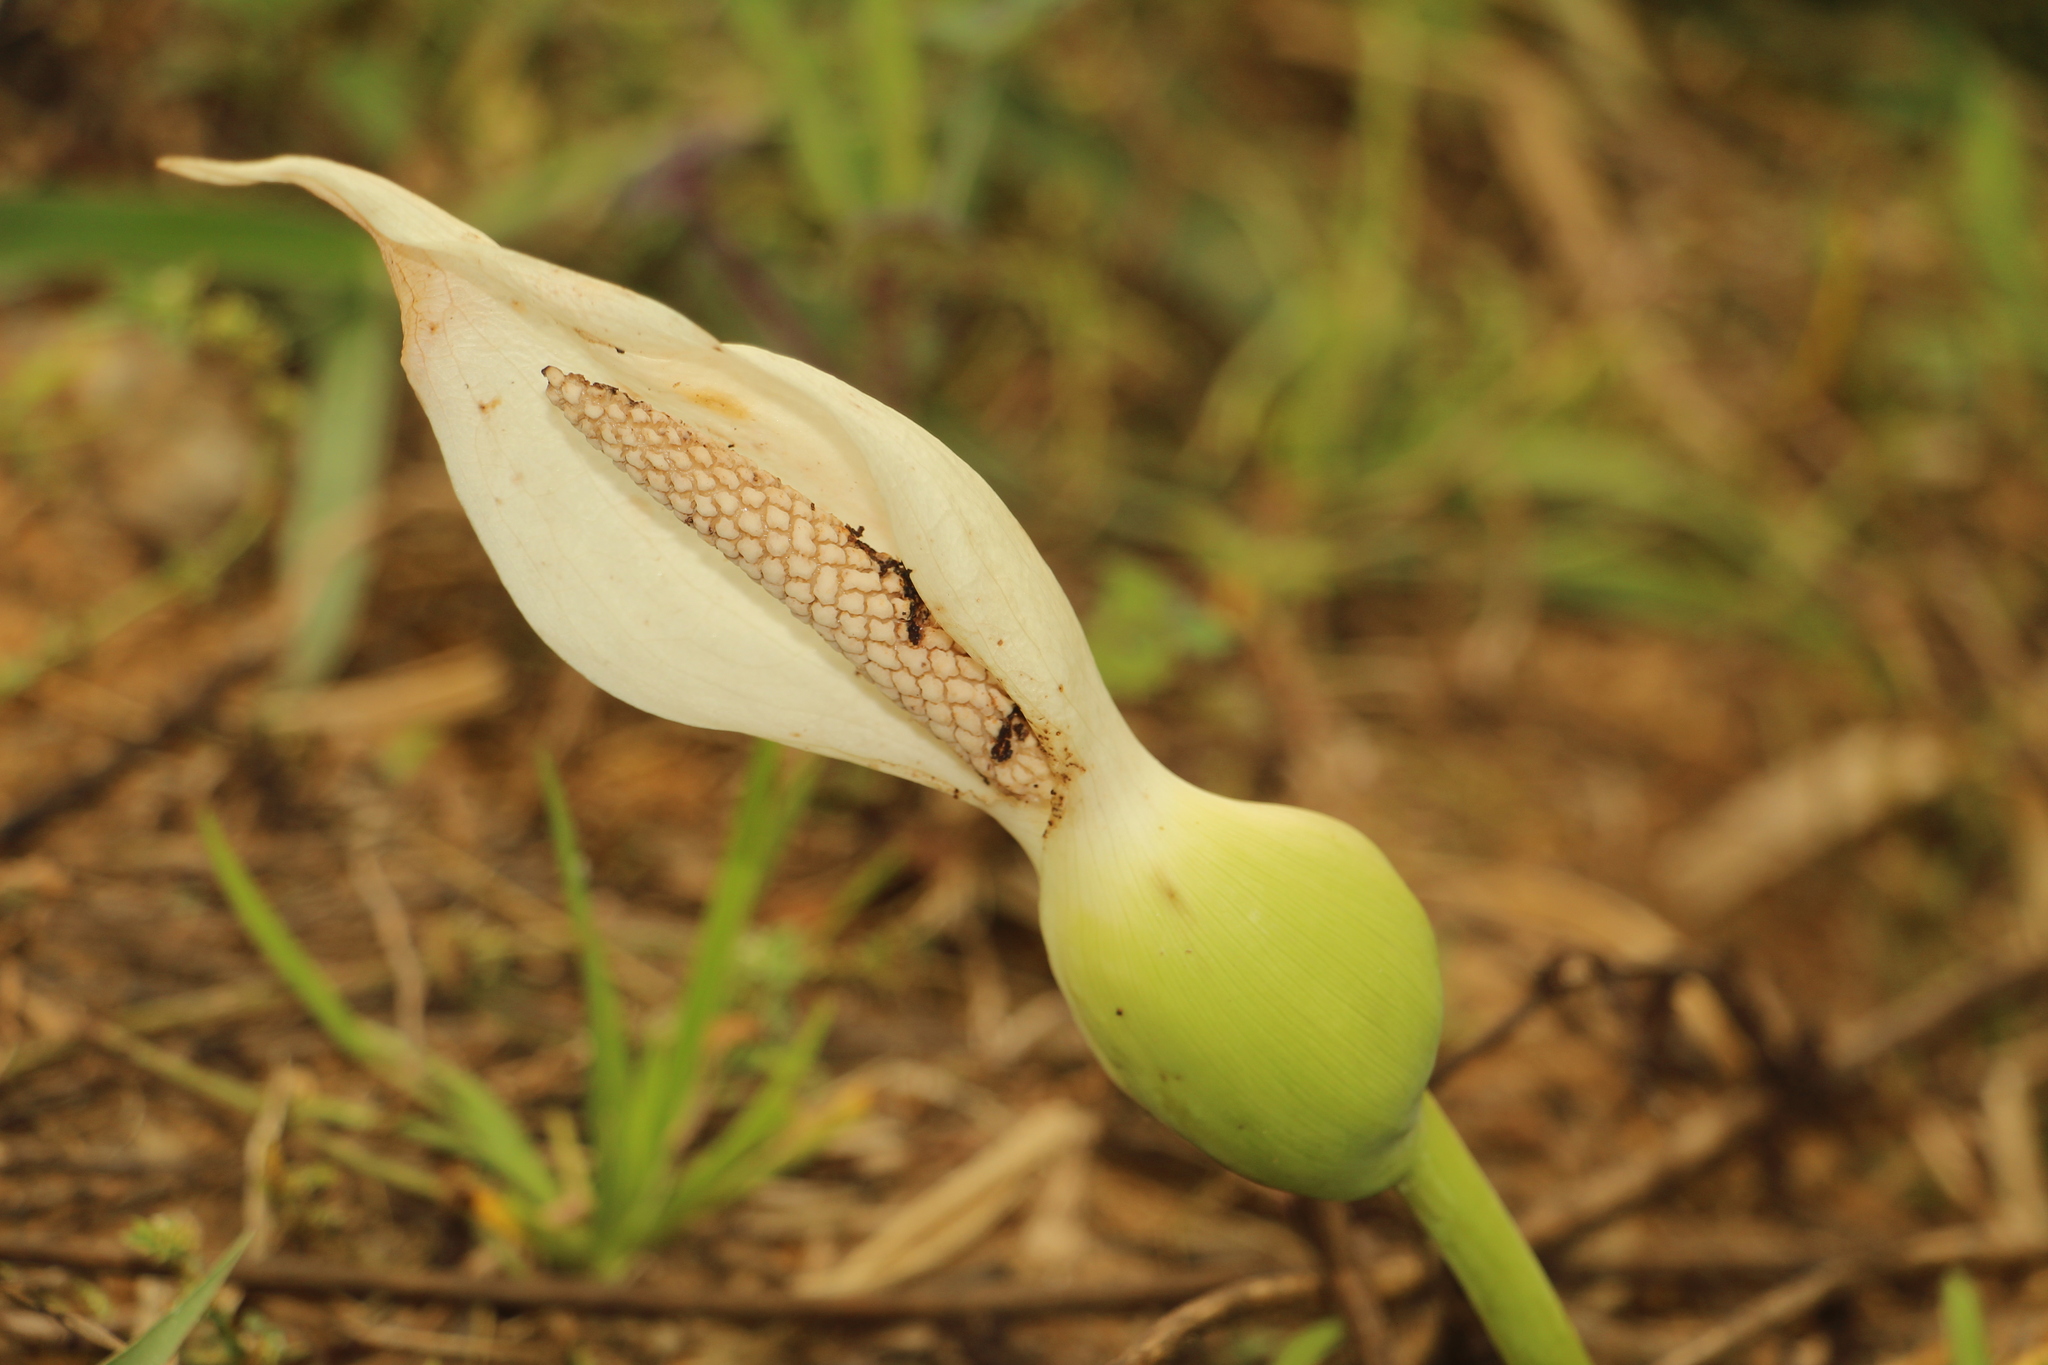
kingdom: Plantae
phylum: Tracheophyta
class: Liliopsida
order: Alismatales
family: Araceae
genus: Caladium
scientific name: Caladium bicolor
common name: Artist's pallet
